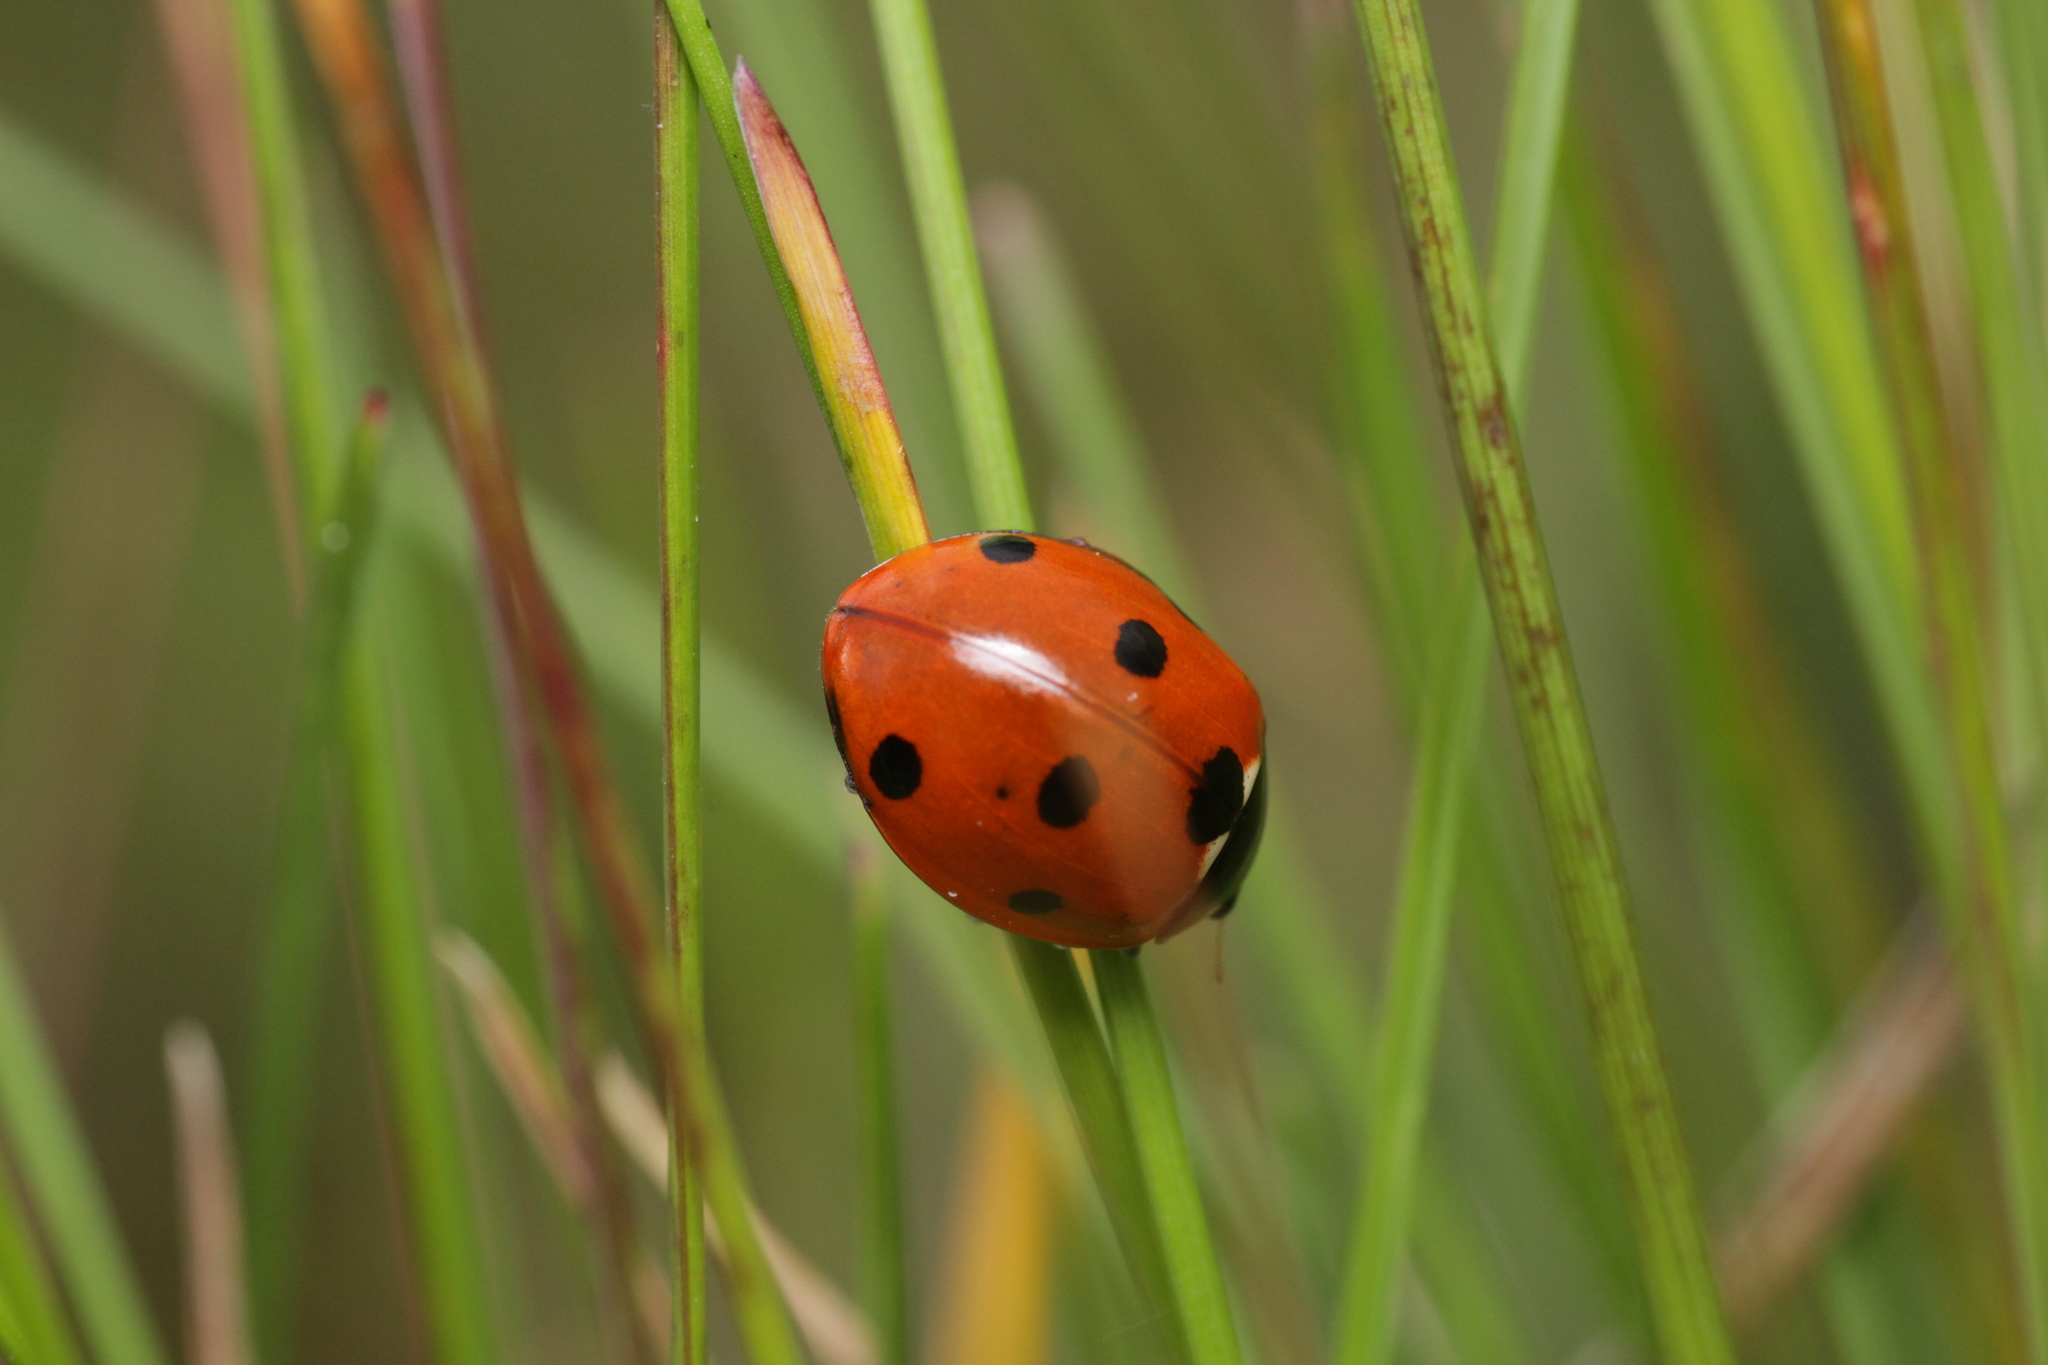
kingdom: Animalia
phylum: Arthropoda
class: Insecta
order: Coleoptera
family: Coccinellidae
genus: Coccinella
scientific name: Coccinella septempunctata
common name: Sevenspotted lady beetle
